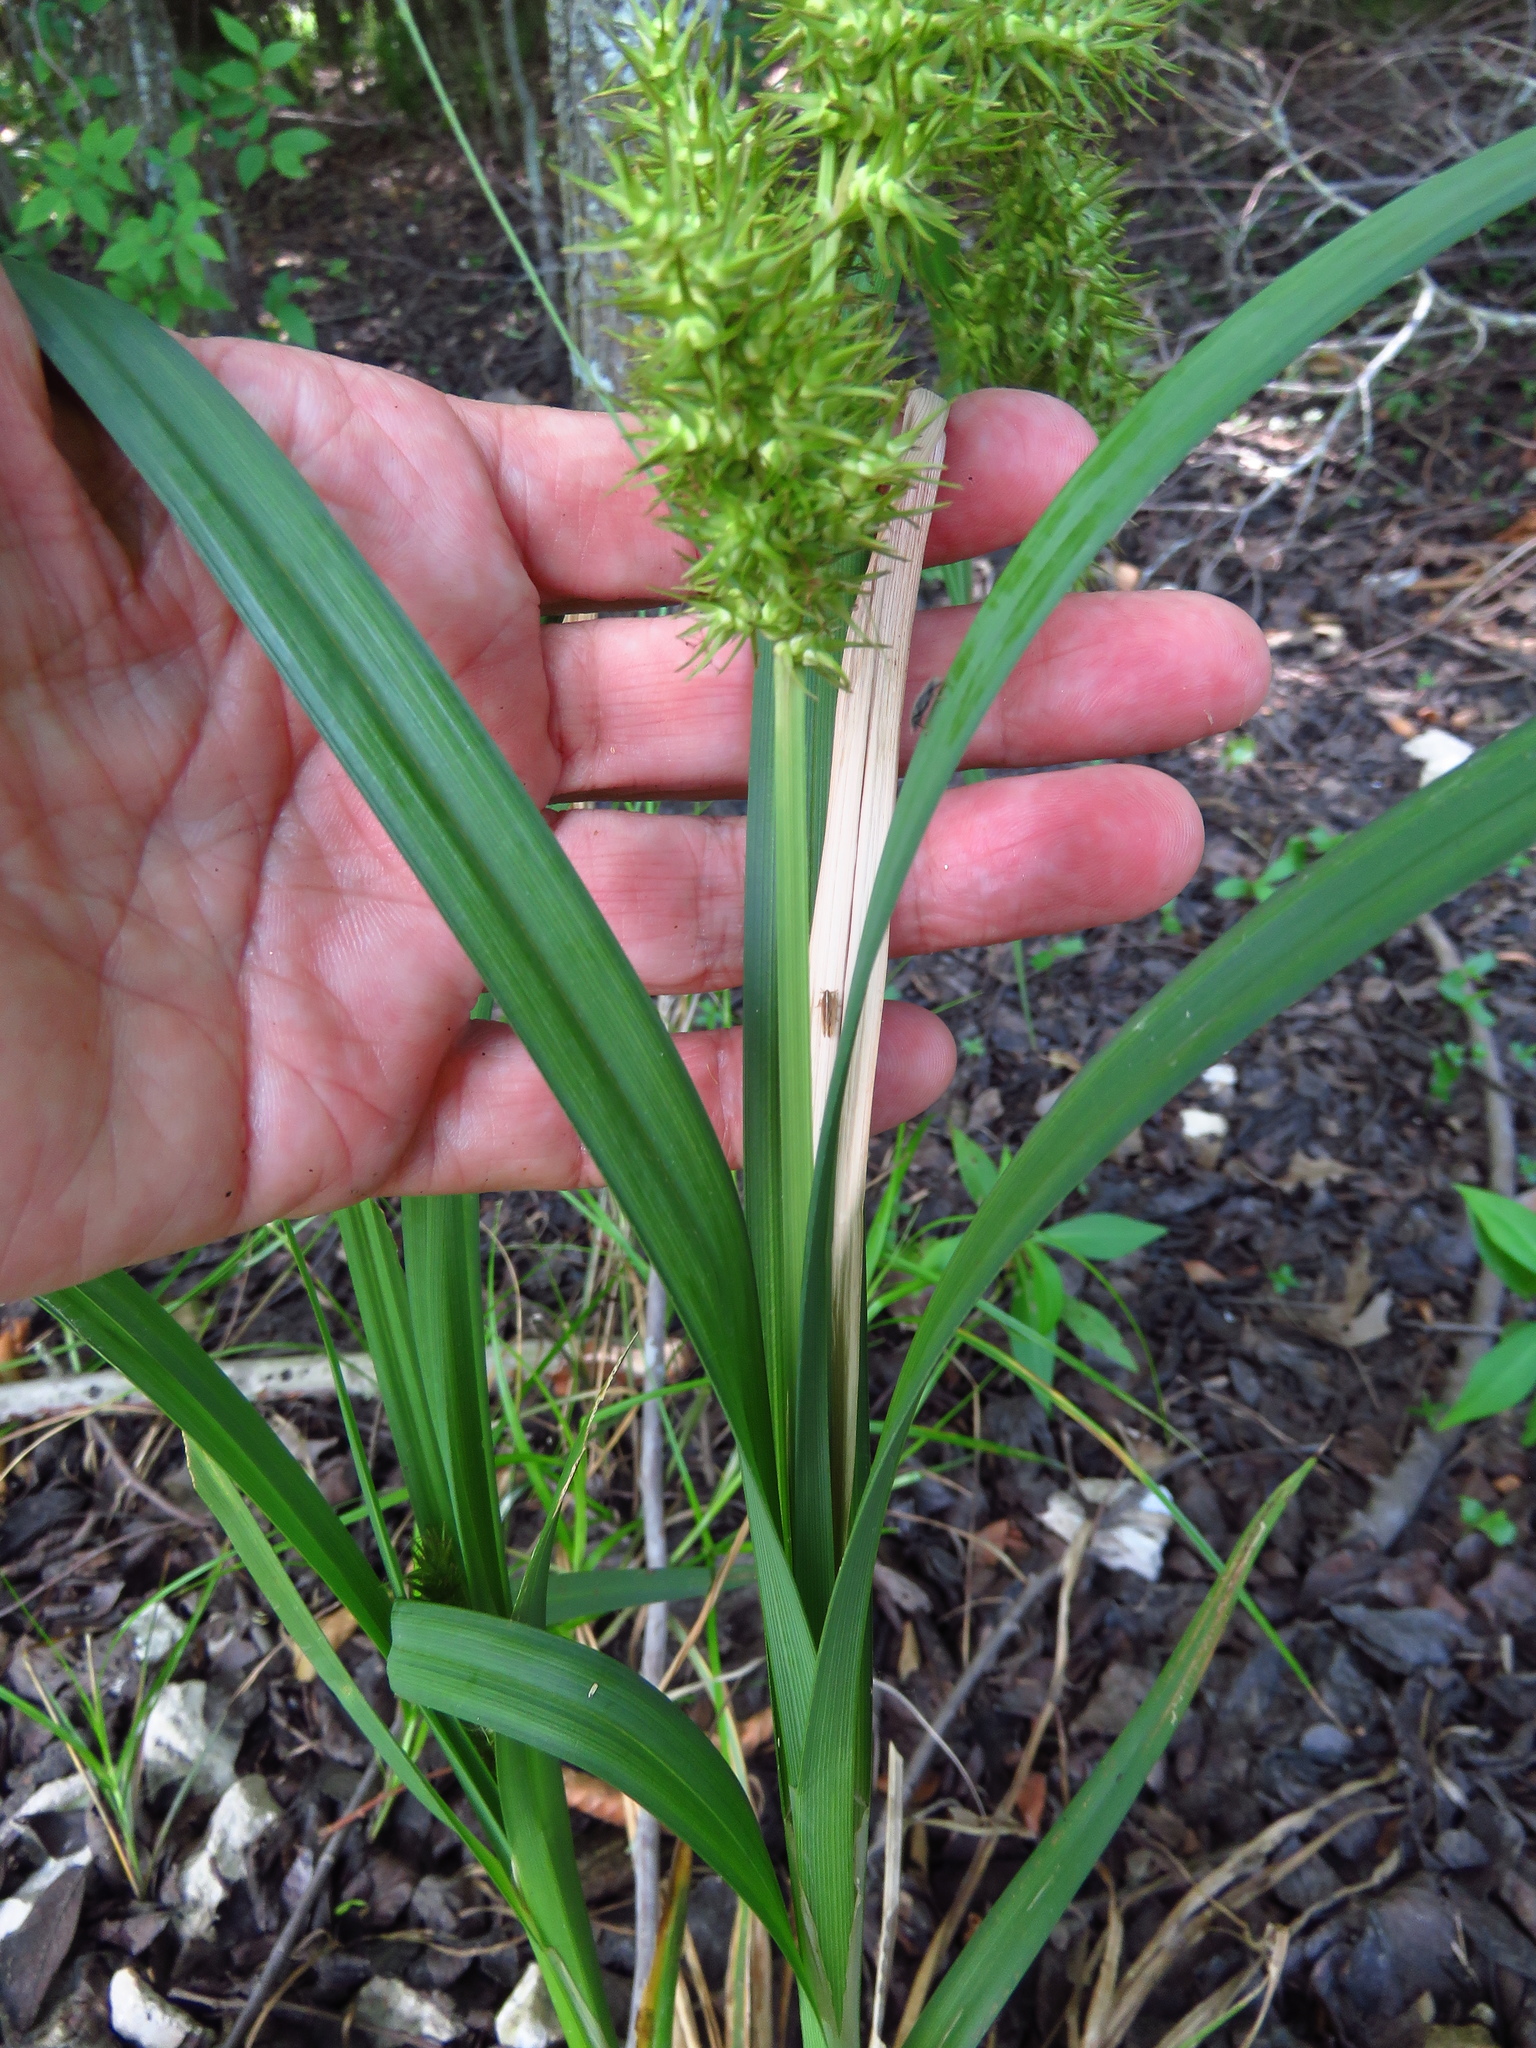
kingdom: Plantae
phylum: Tracheophyta
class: Liliopsida
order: Poales
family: Cyperaceae
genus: Carex
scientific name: Carex crus-corvi
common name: Crow-spur sedge
